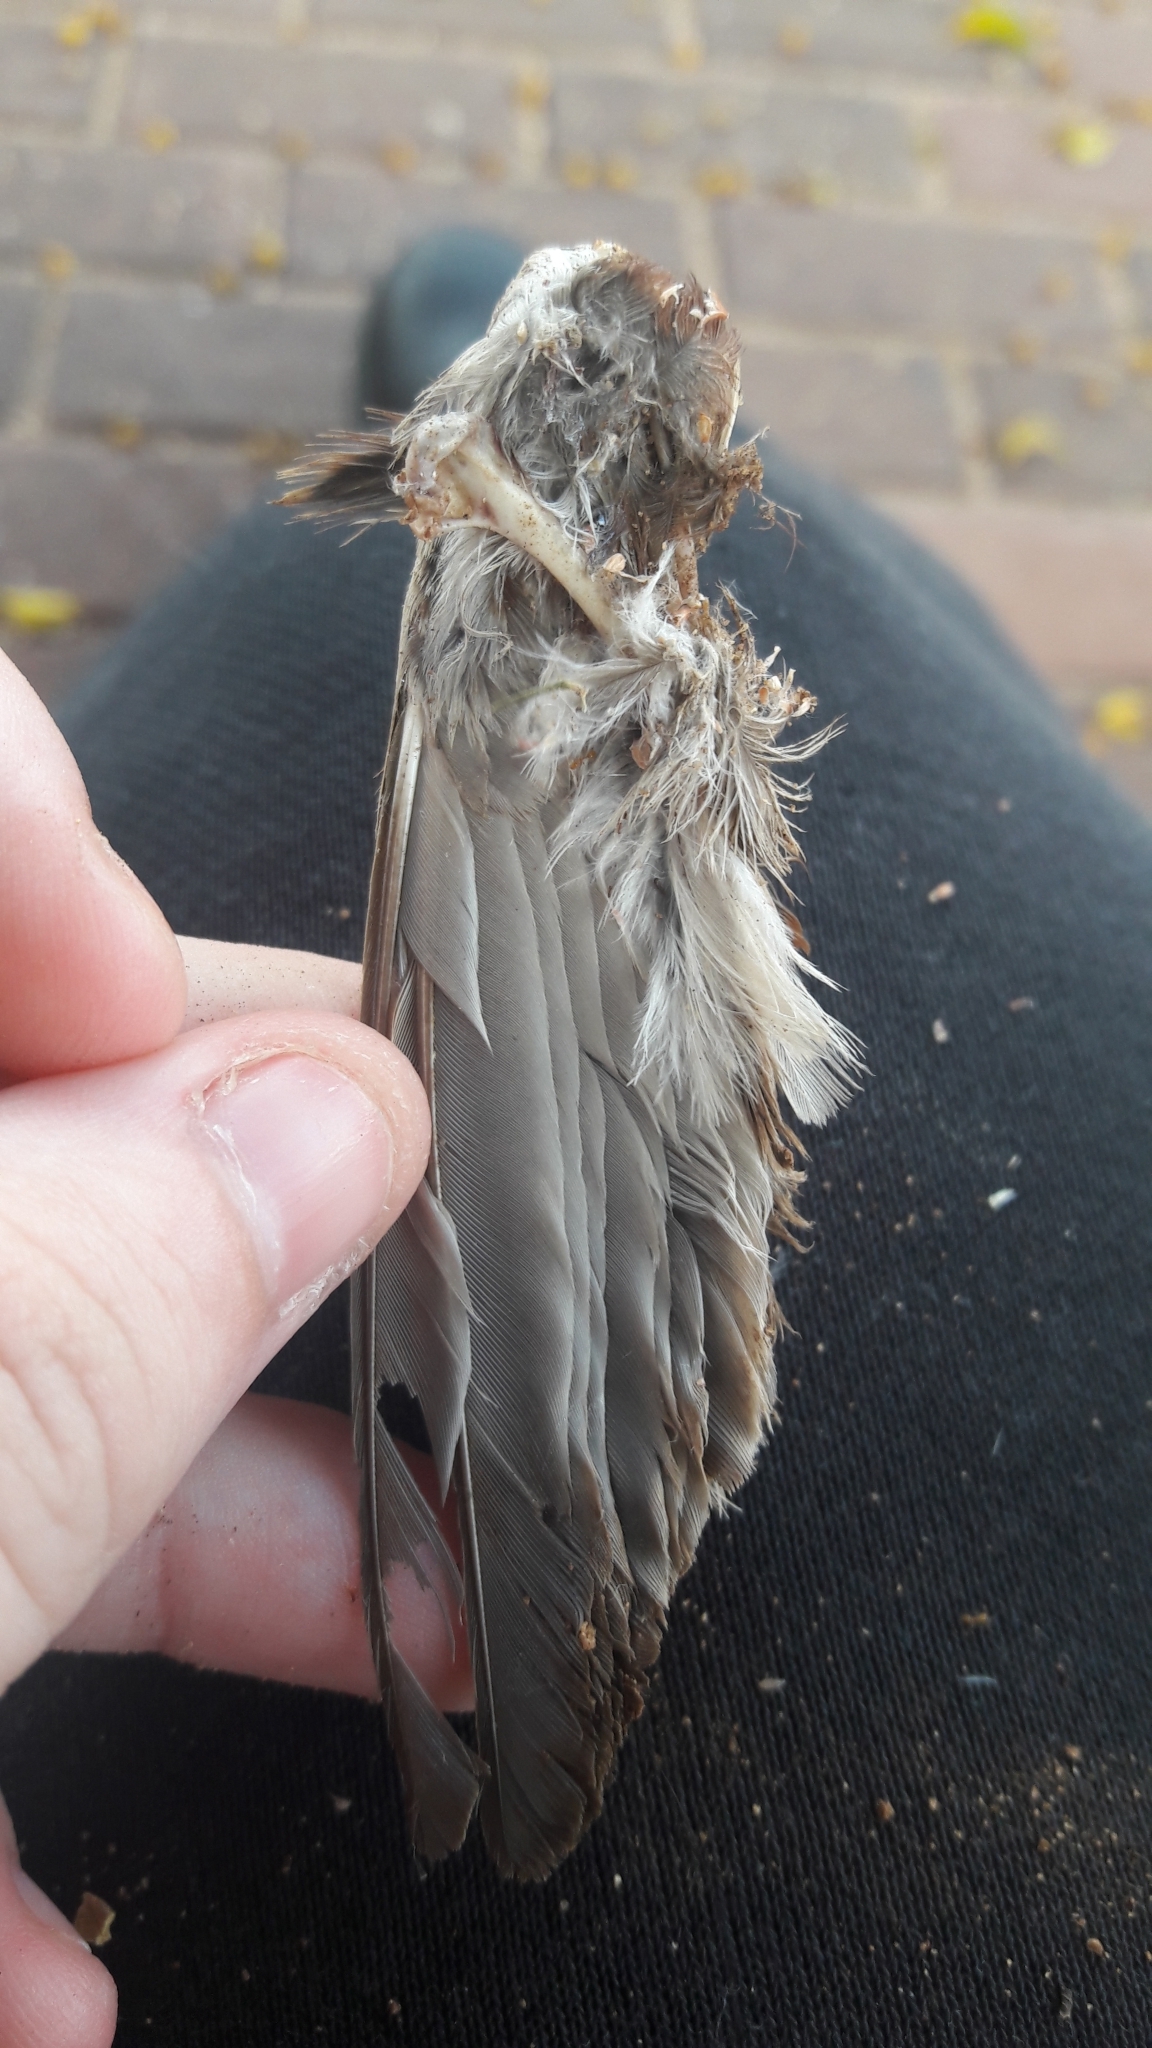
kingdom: Animalia
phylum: Chordata
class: Aves
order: Passeriformes
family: Passeridae
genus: Passer
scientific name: Passer domesticus
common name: House sparrow
